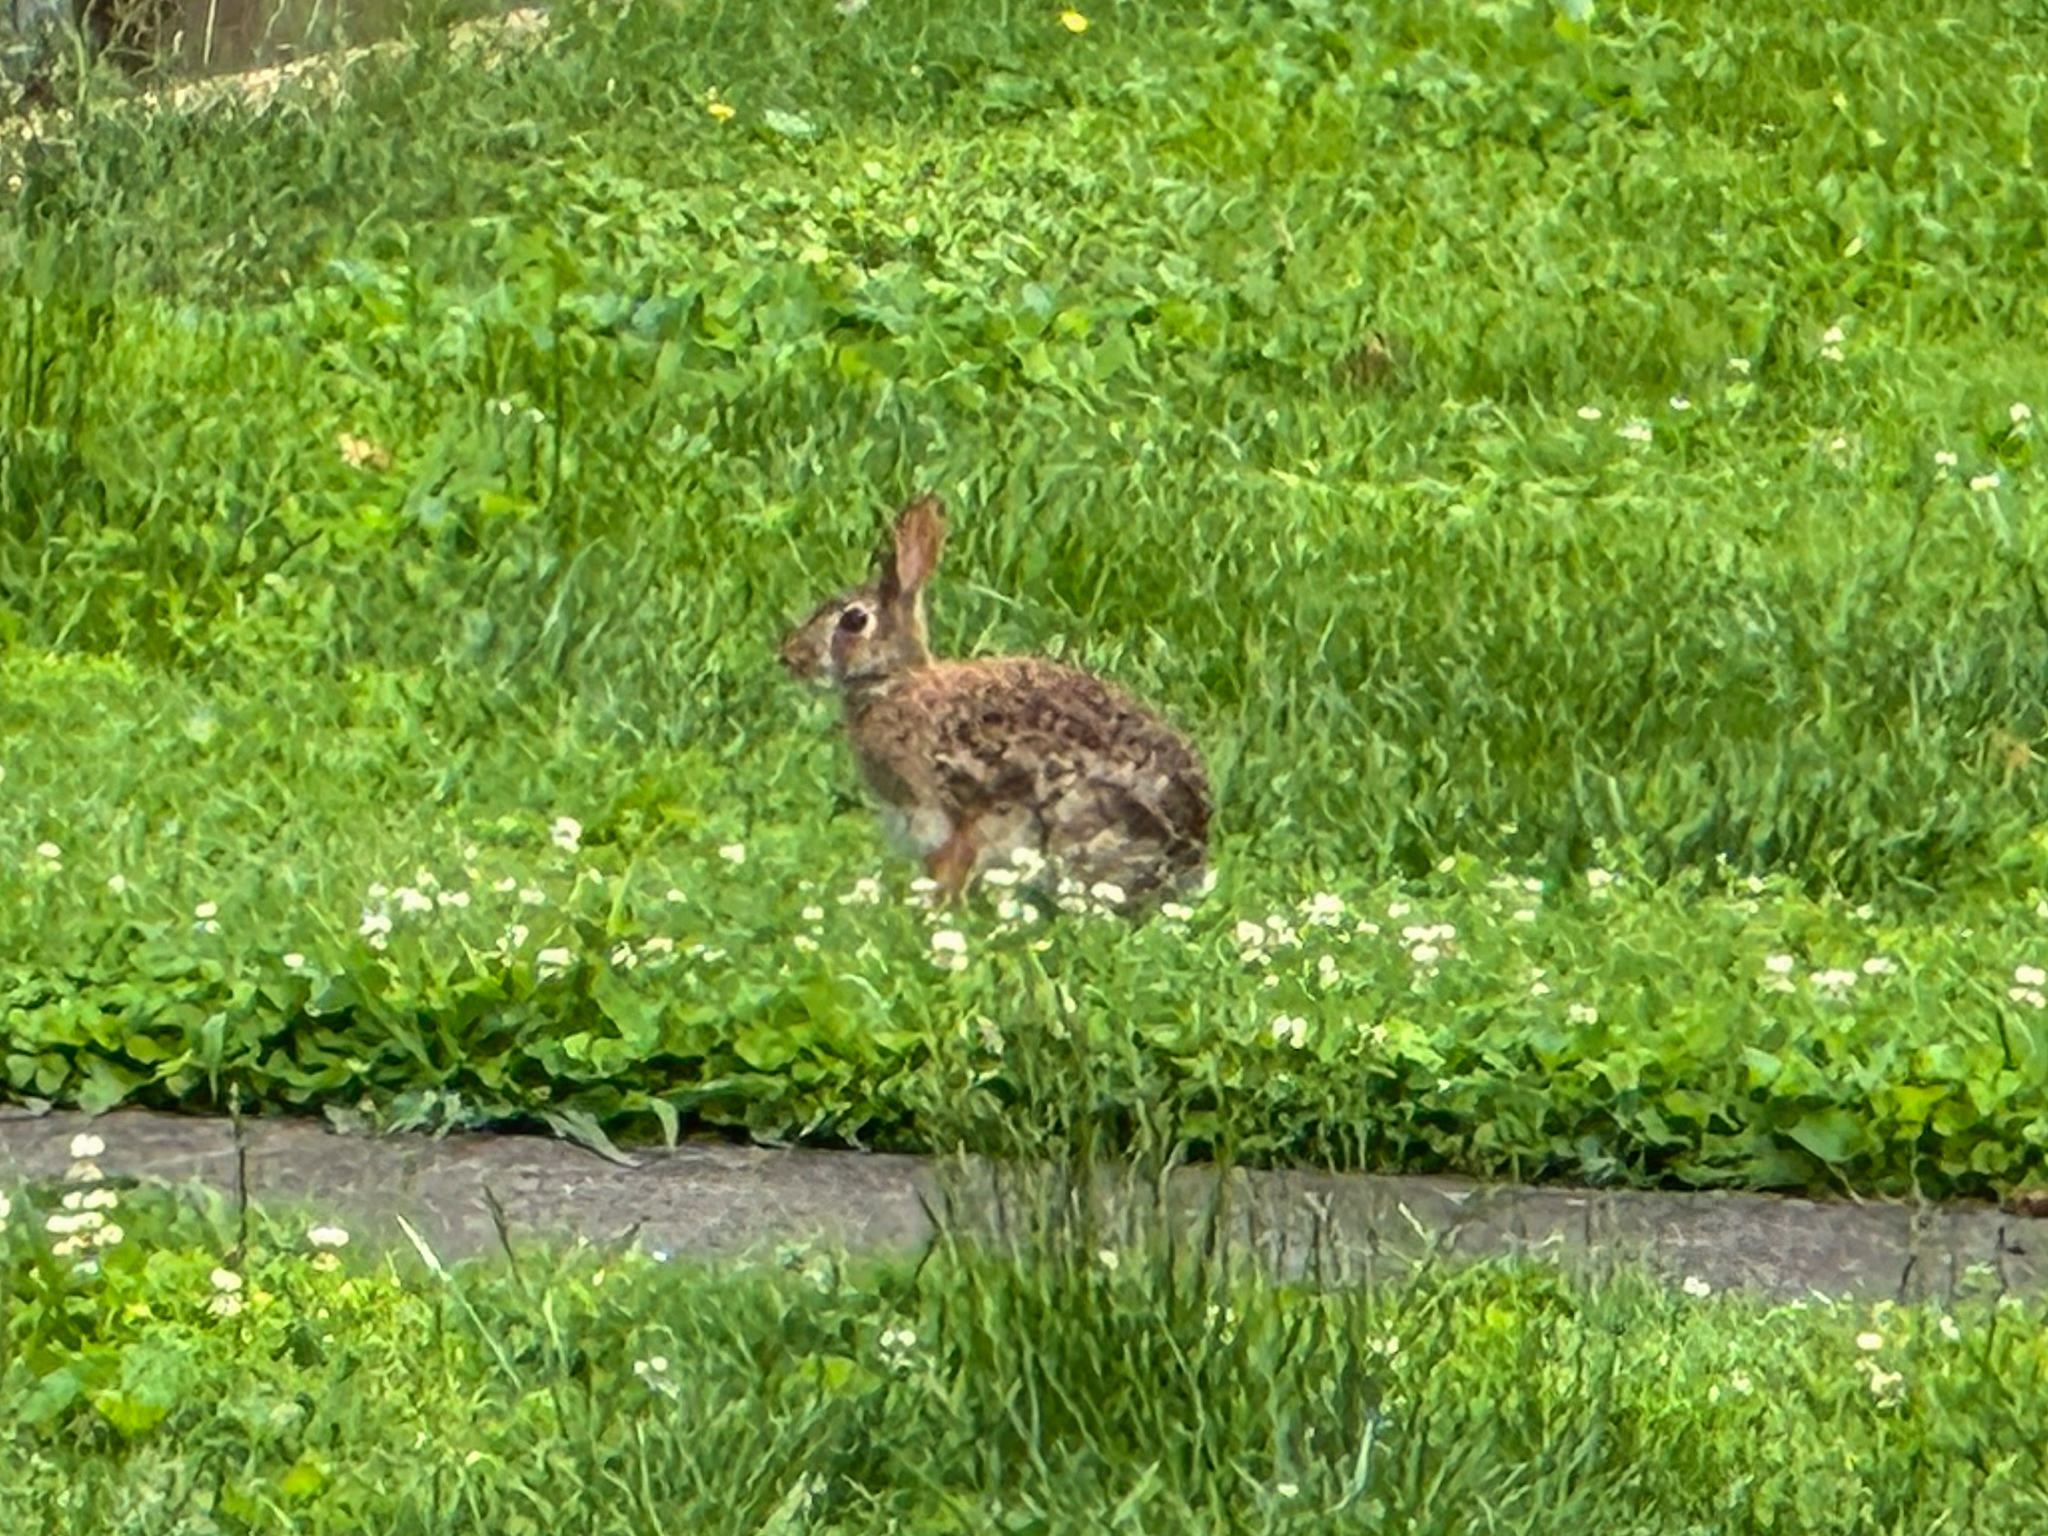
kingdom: Animalia
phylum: Chordata
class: Mammalia
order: Lagomorpha
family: Leporidae
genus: Sylvilagus
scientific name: Sylvilagus floridanus
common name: Eastern cottontail
